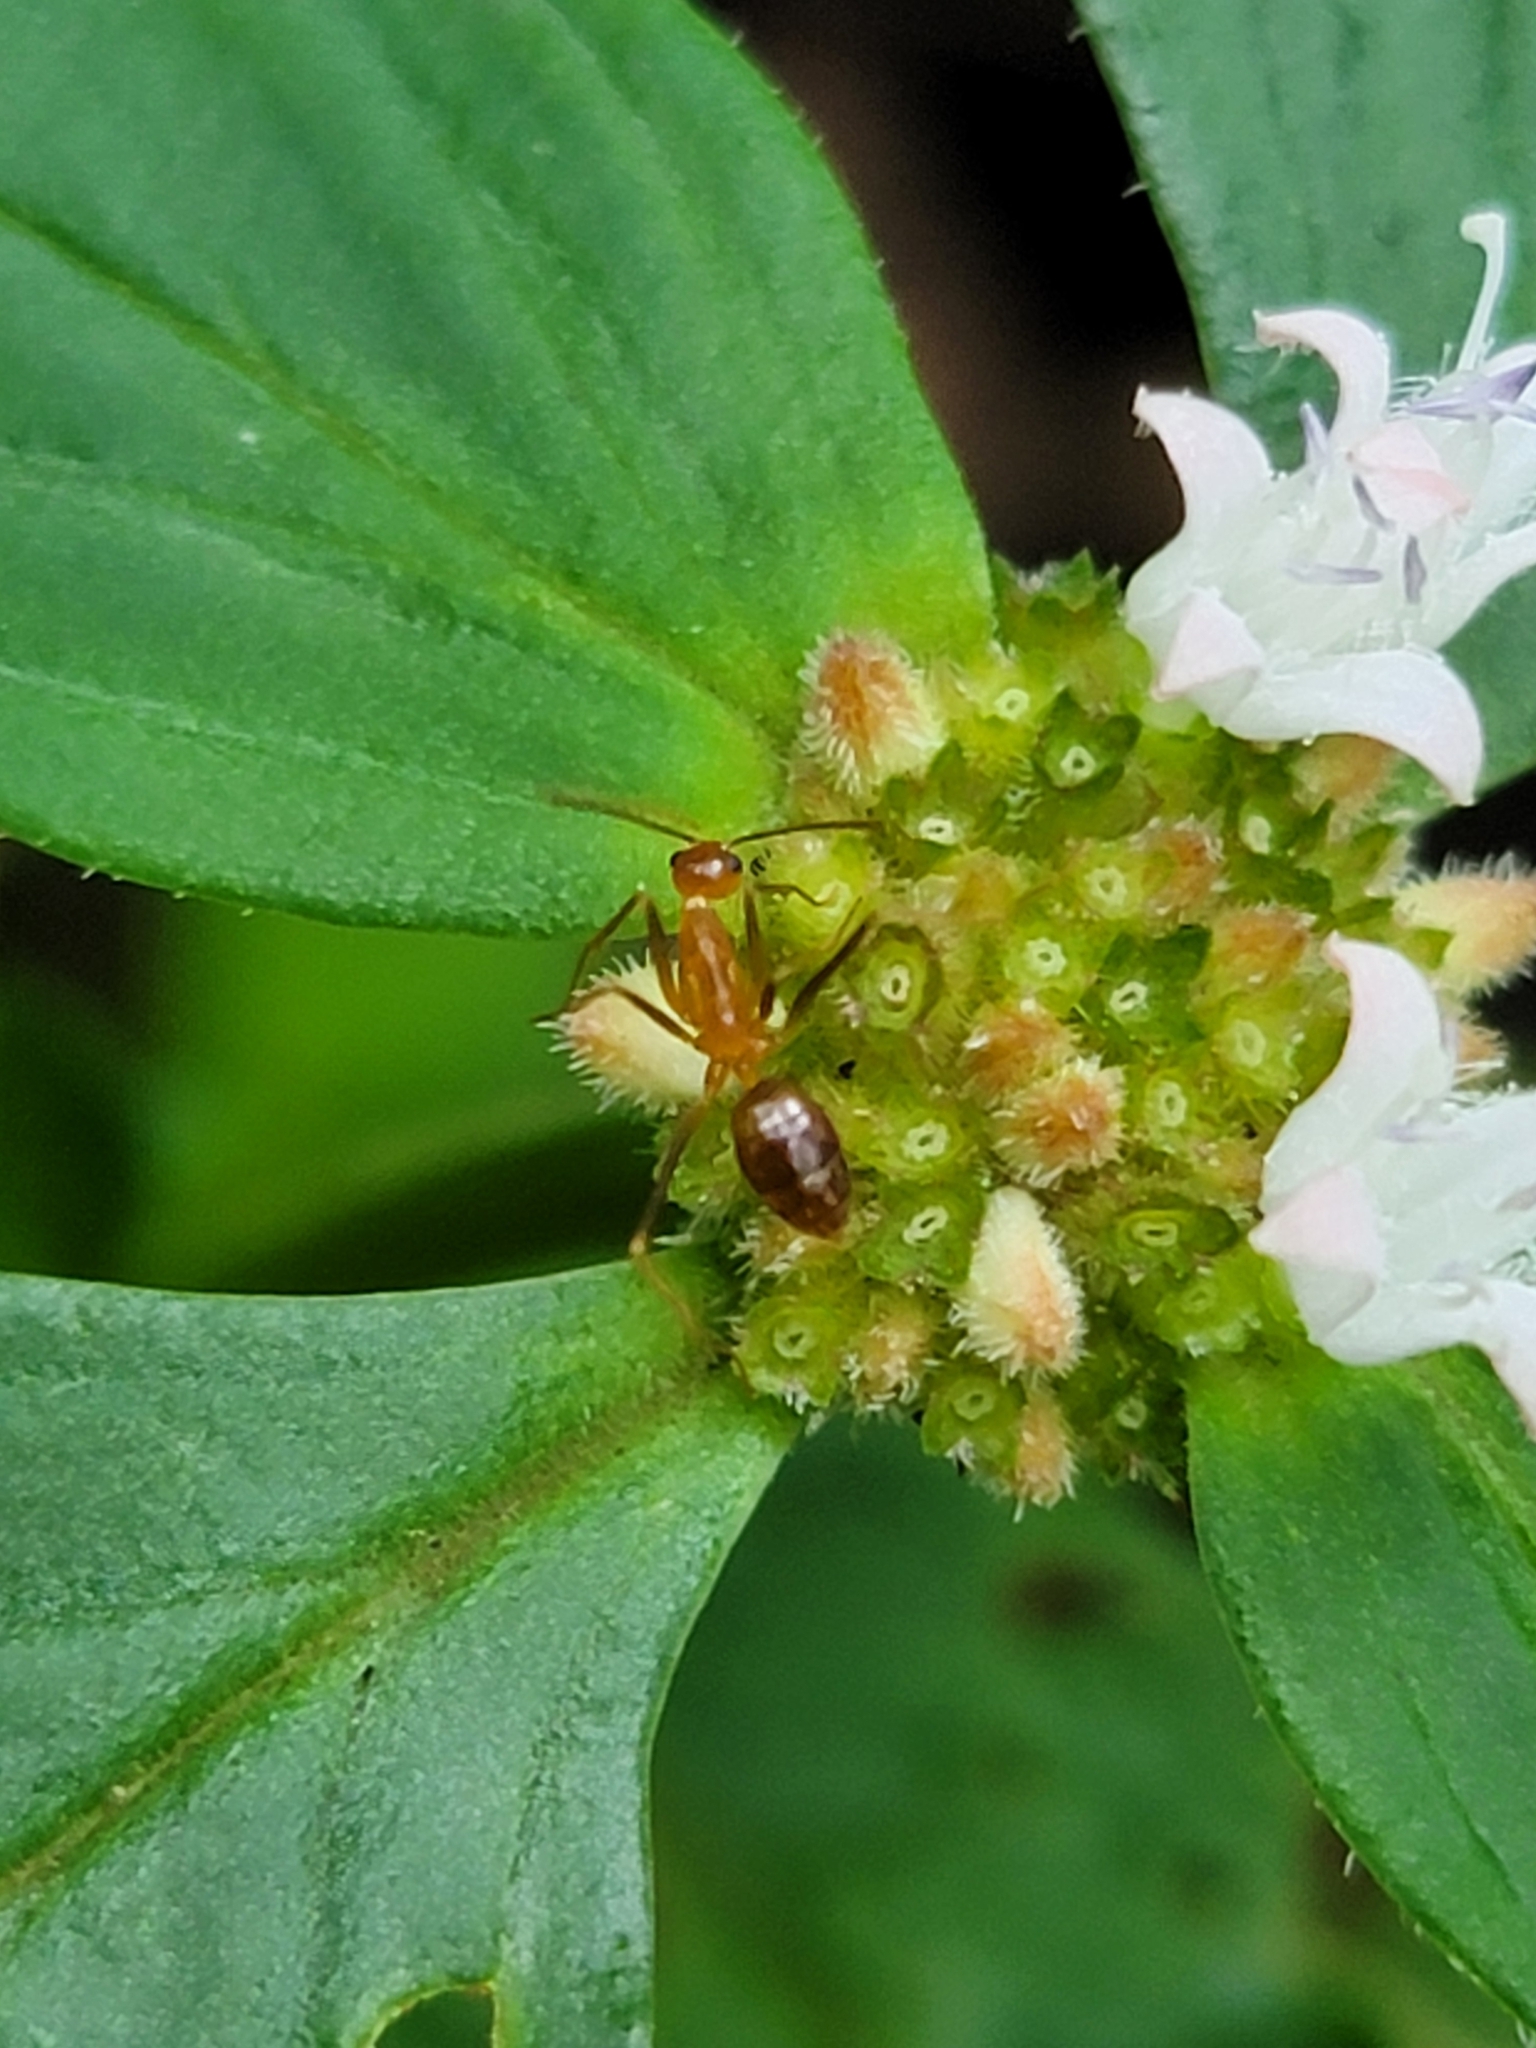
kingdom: Animalia
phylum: Arthropoda
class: Insecta
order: Hymenoptera
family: Formicidae
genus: Anoplolepis
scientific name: Anoplolepis gracilipes
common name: Ant
